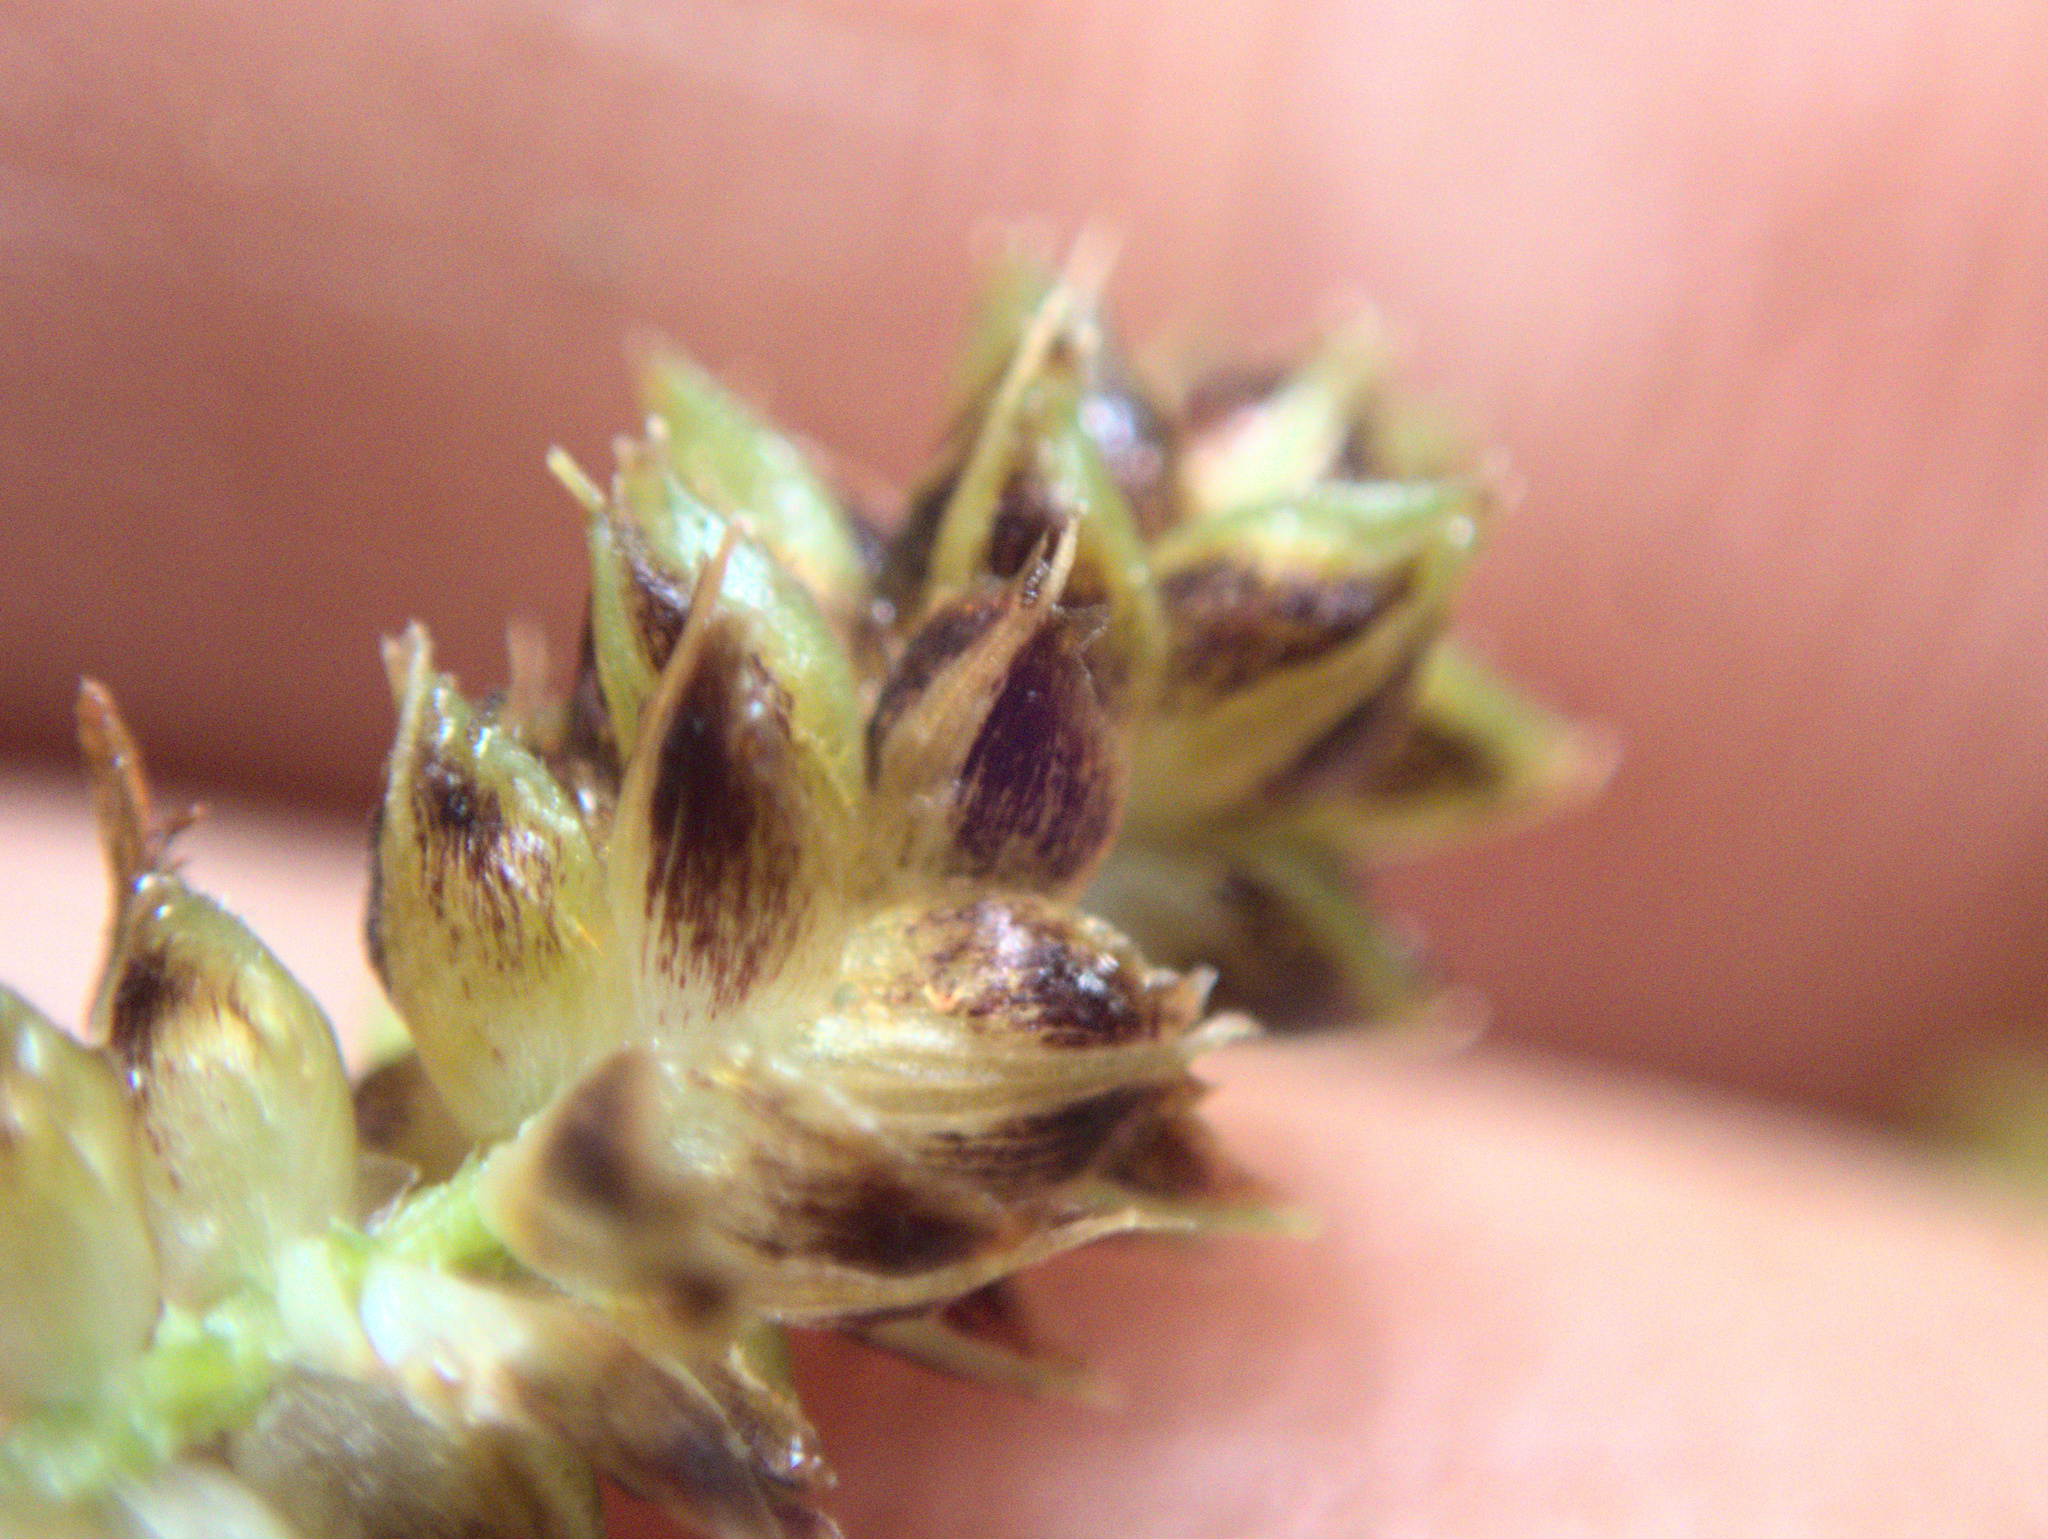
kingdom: Plantae
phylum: Tracheophyta
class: Liliopsida
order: Poales
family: Cyperaceae
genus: Carex
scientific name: Carex dissita
